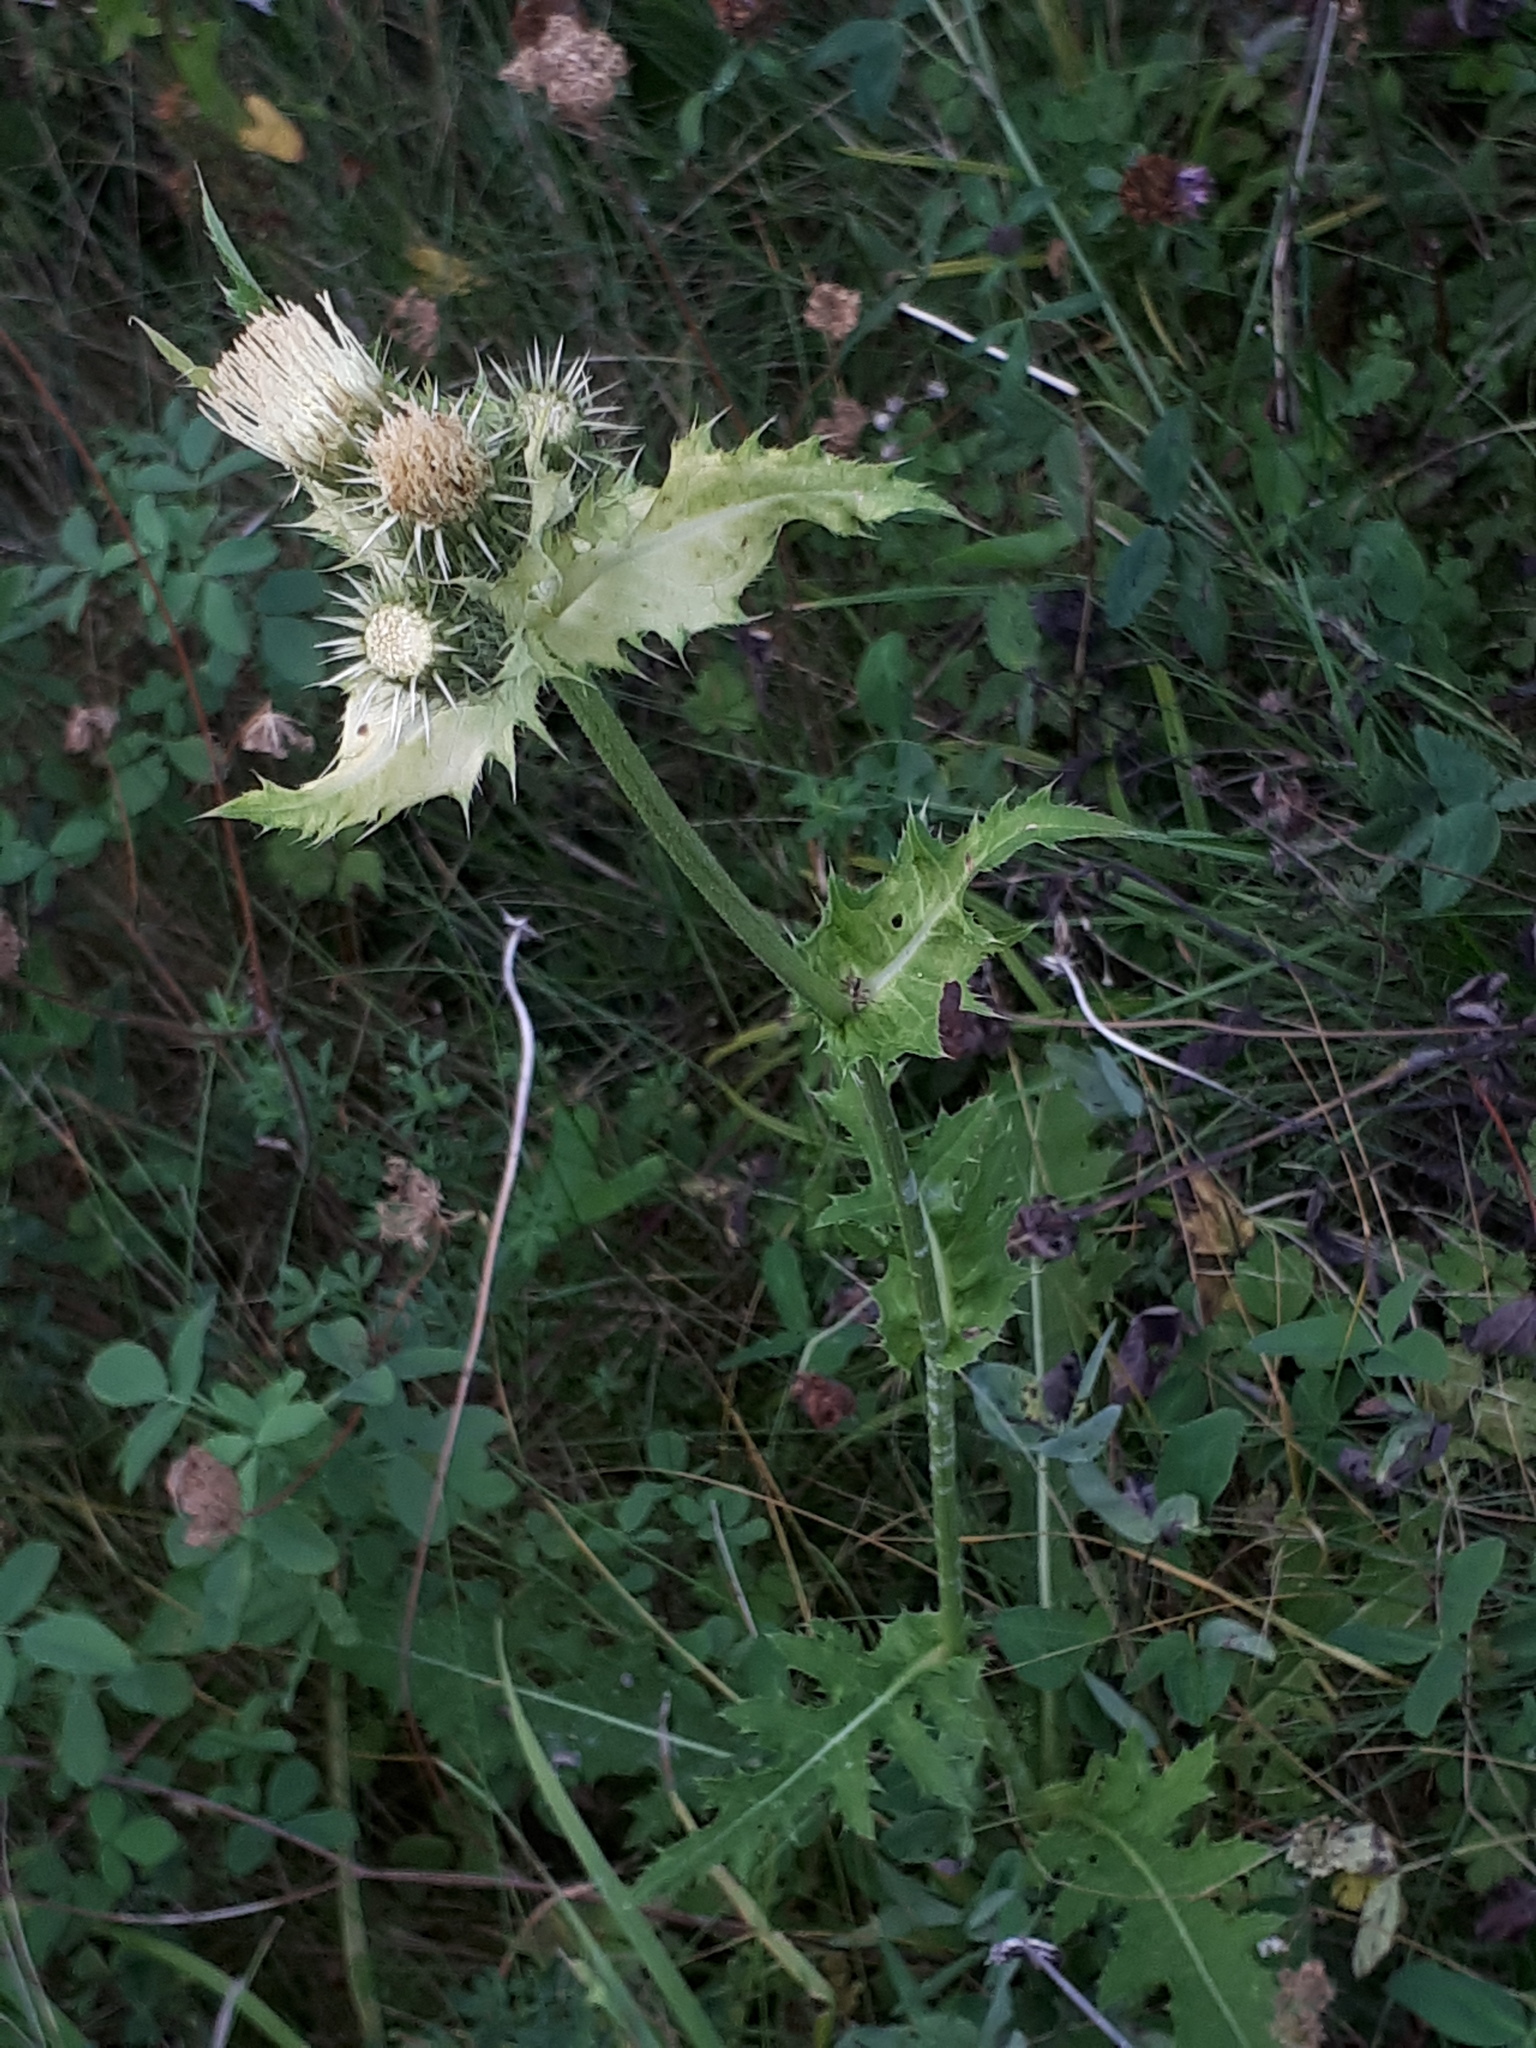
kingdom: Plantae
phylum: Tracheophyta
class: Magnoliopsida
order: Asterales
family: Asteraceae
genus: Cirsium
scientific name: Cirsium oleraceum
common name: Cabbage thistle
